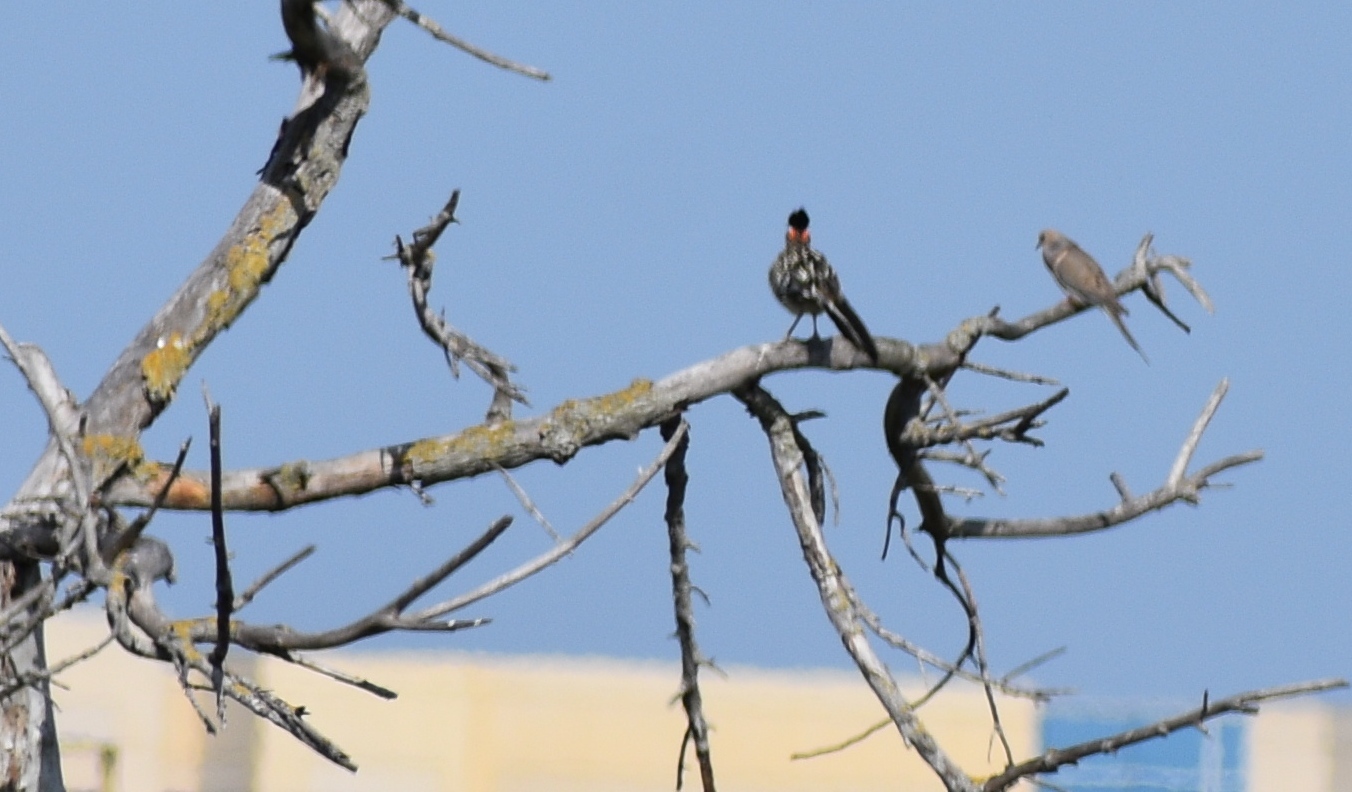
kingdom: Animalia
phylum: Chordata
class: Aves
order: Columbiformes
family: Columbidae
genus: Zenaida
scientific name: Zenaida macroura
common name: Mourning dove
